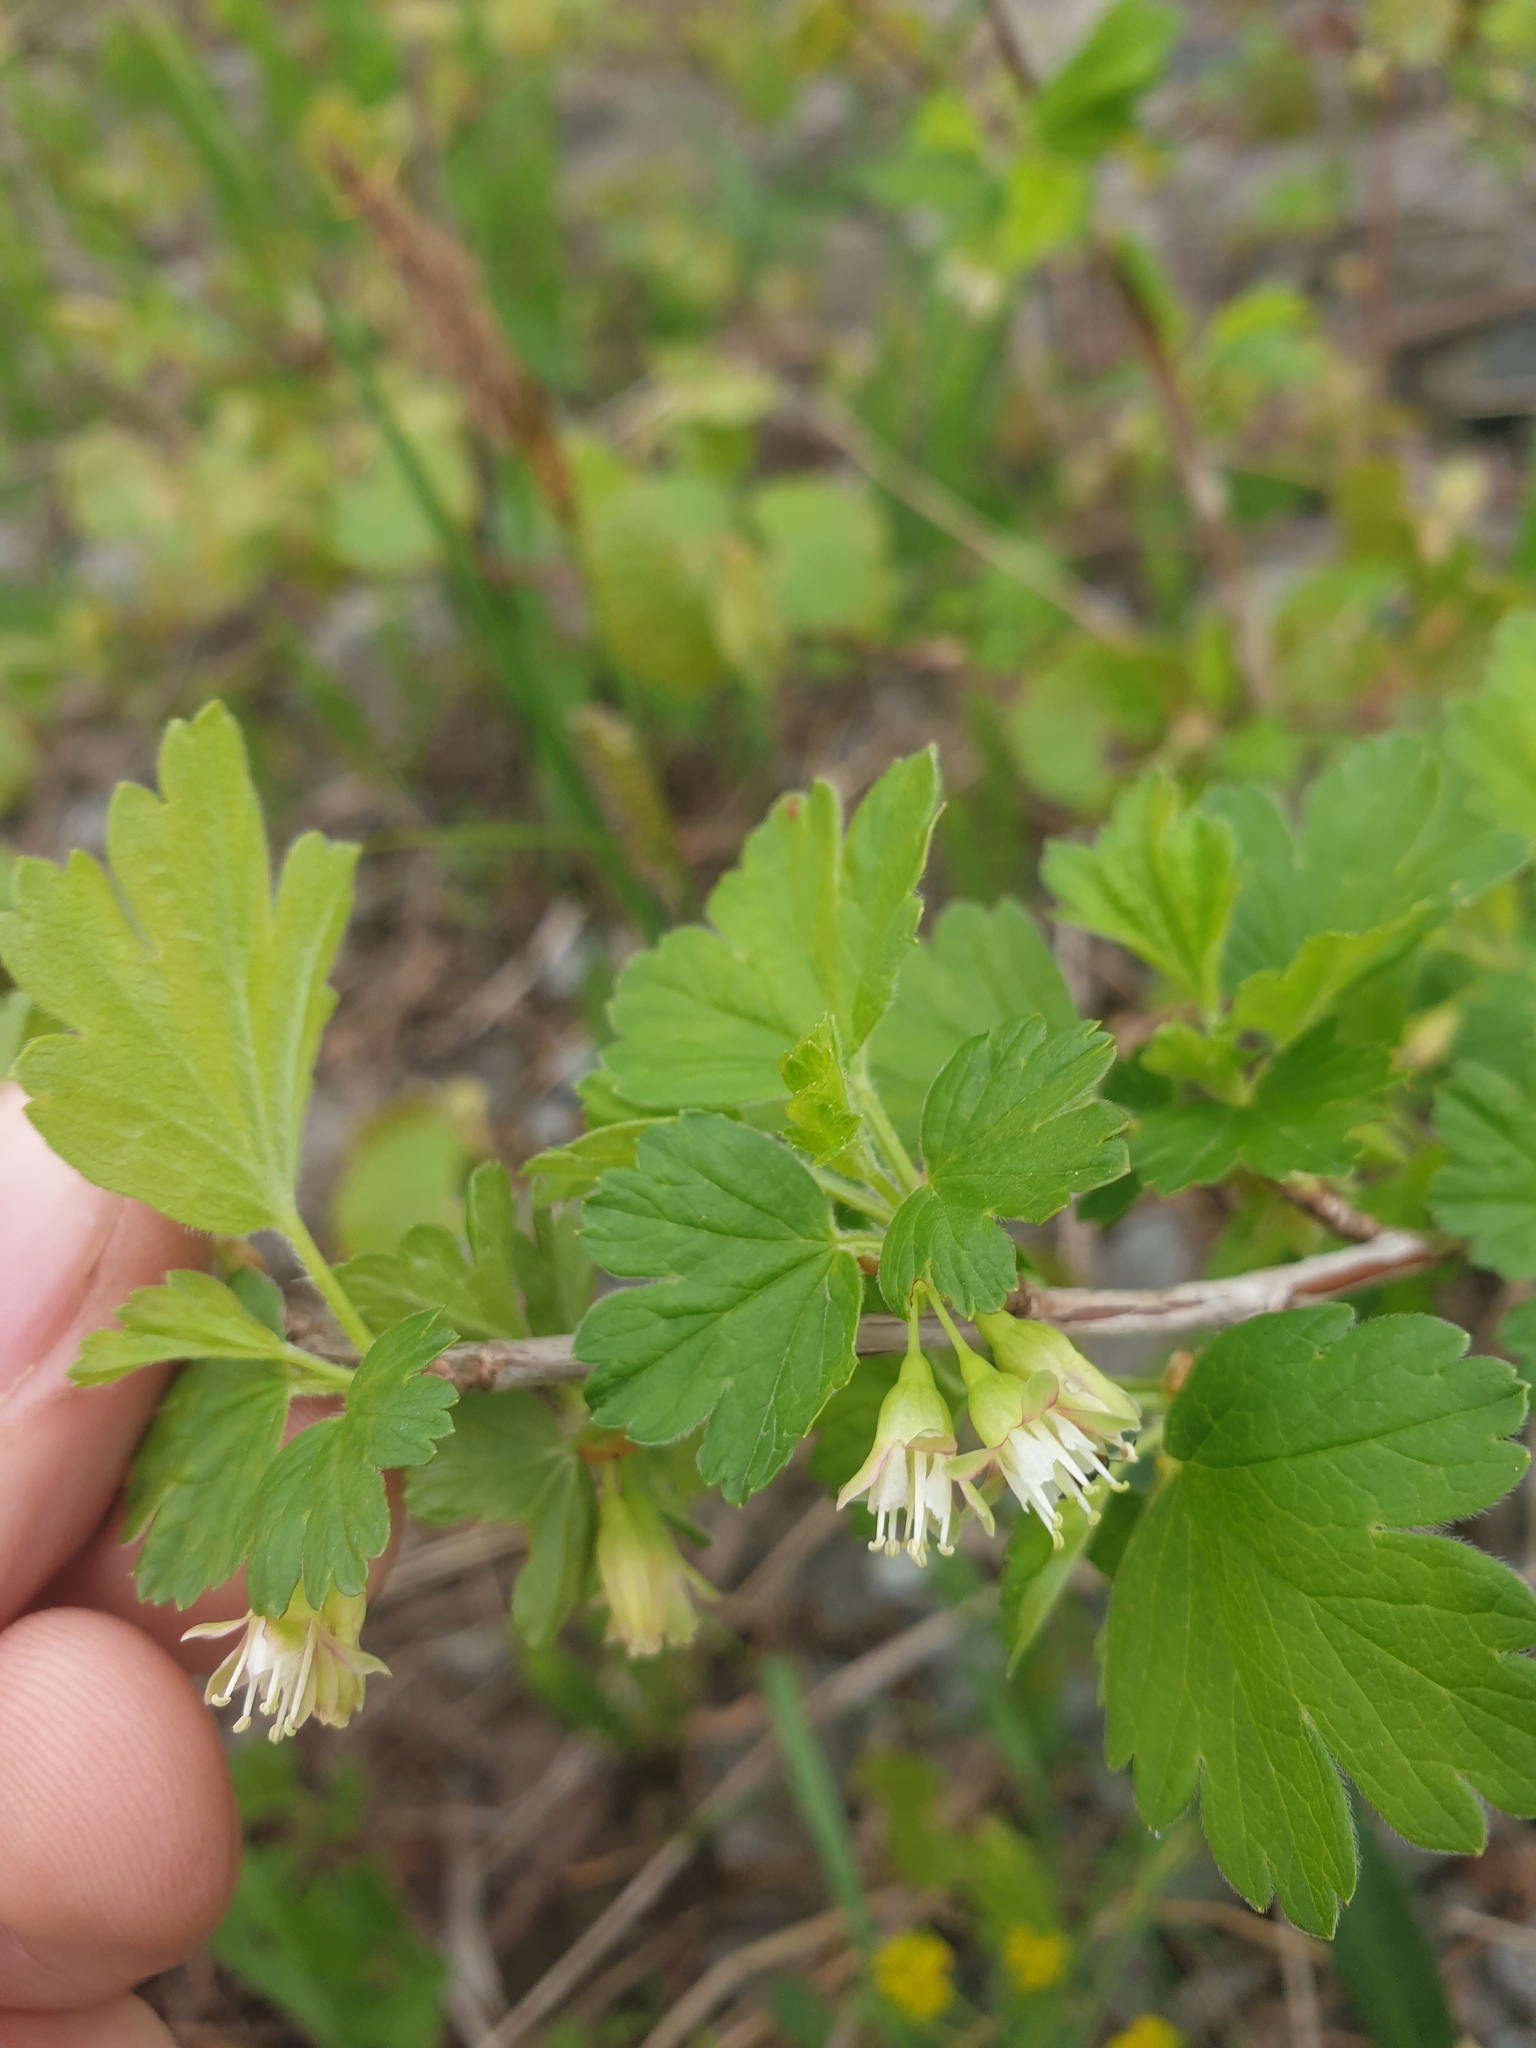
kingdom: Plantae
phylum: Tracheophyta
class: Magnoliopsida
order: Saxifragales
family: Grossulariaceae
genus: Ribes
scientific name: Ribes hirtellum
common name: Hairy gooseberry
